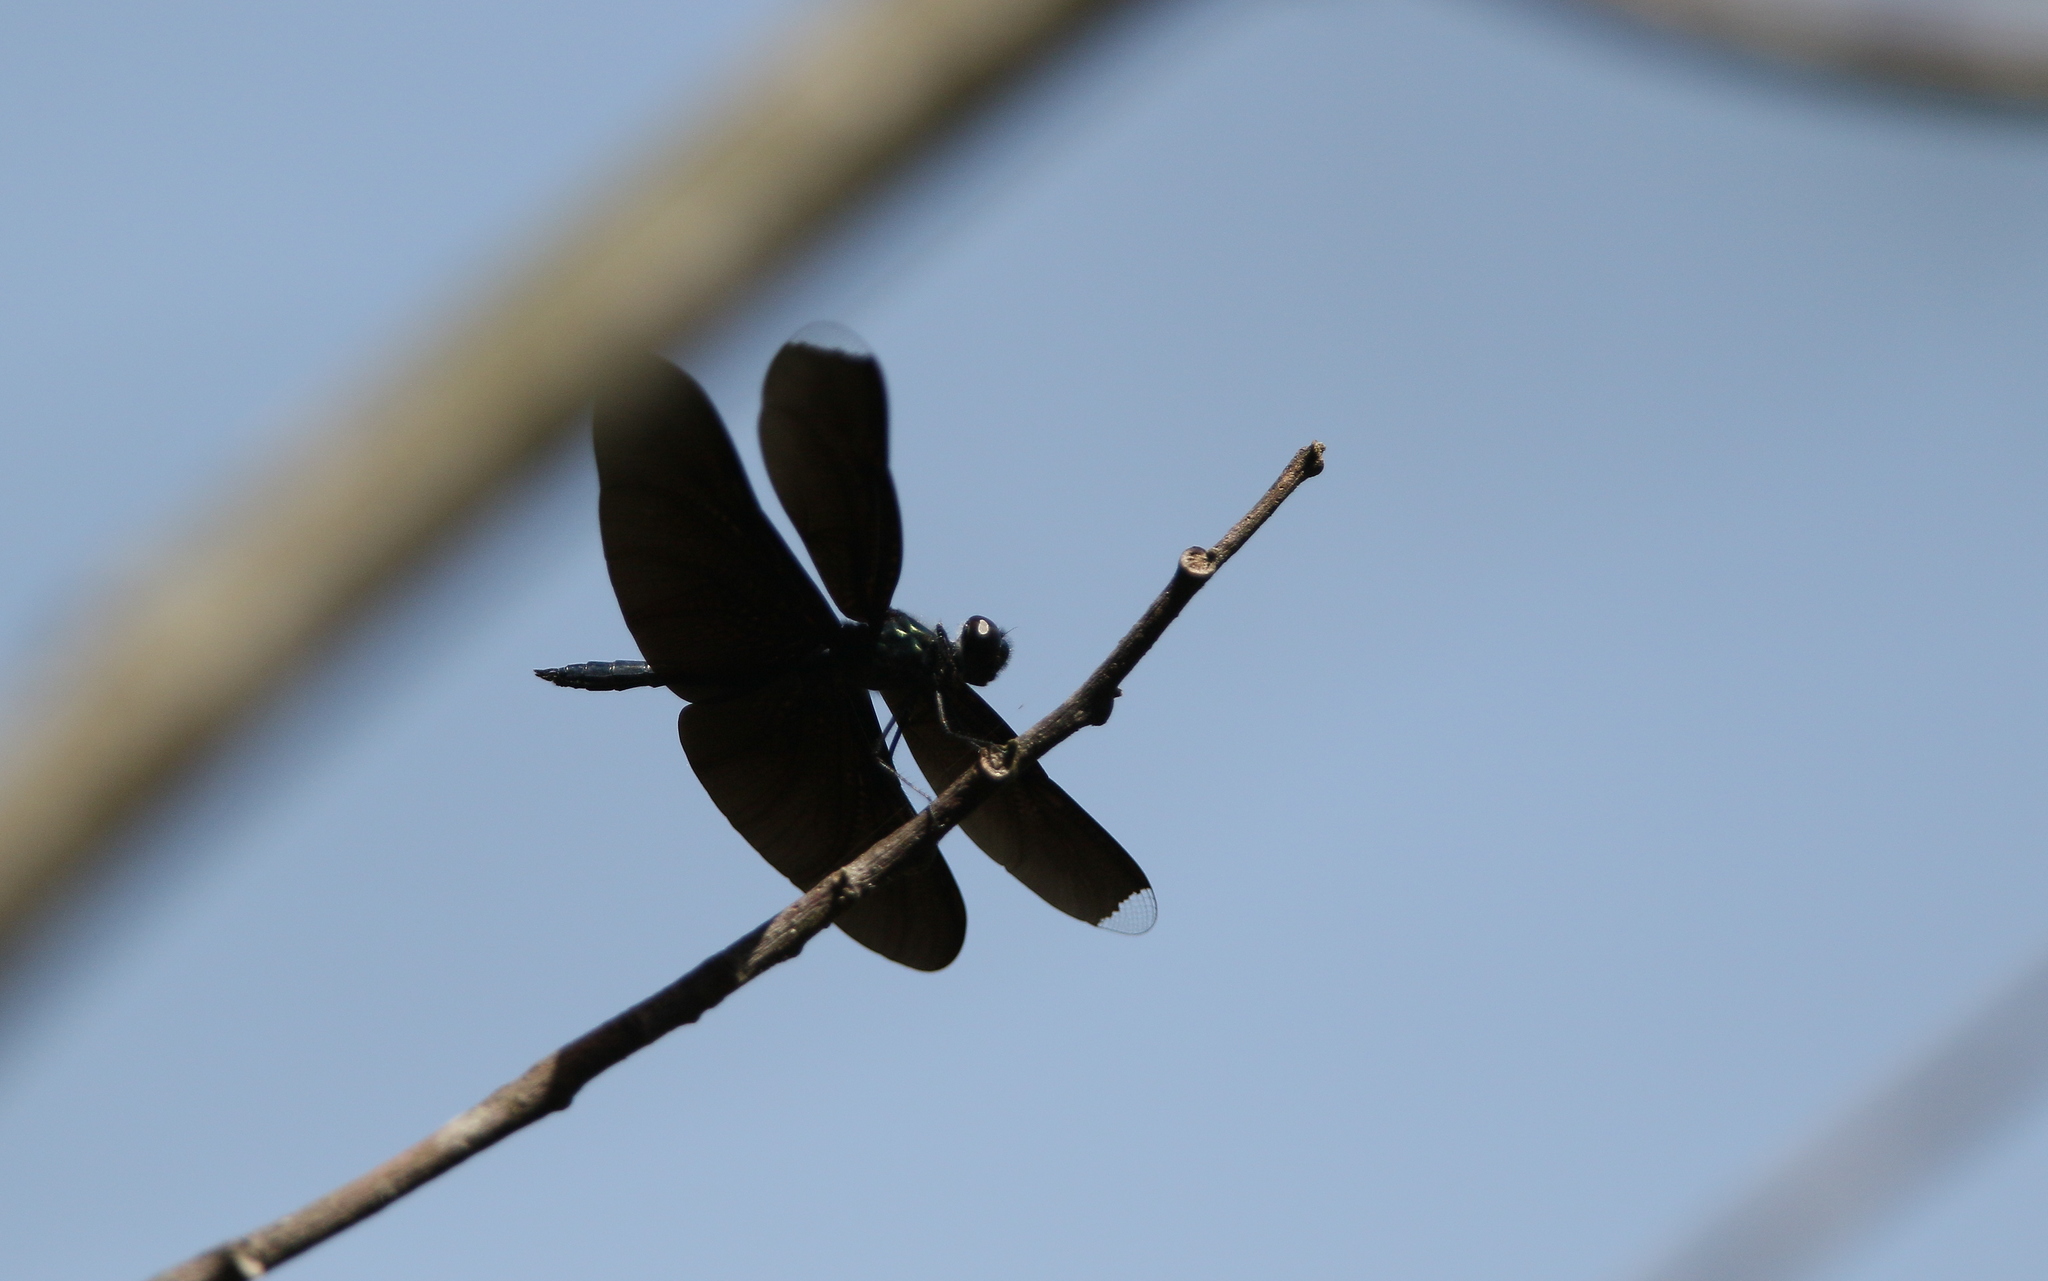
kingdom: Animalia
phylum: Arthropoda
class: Insecta
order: Odonata
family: Libellulidae
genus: Rhyothemis
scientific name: Rhyothemis plutonia
